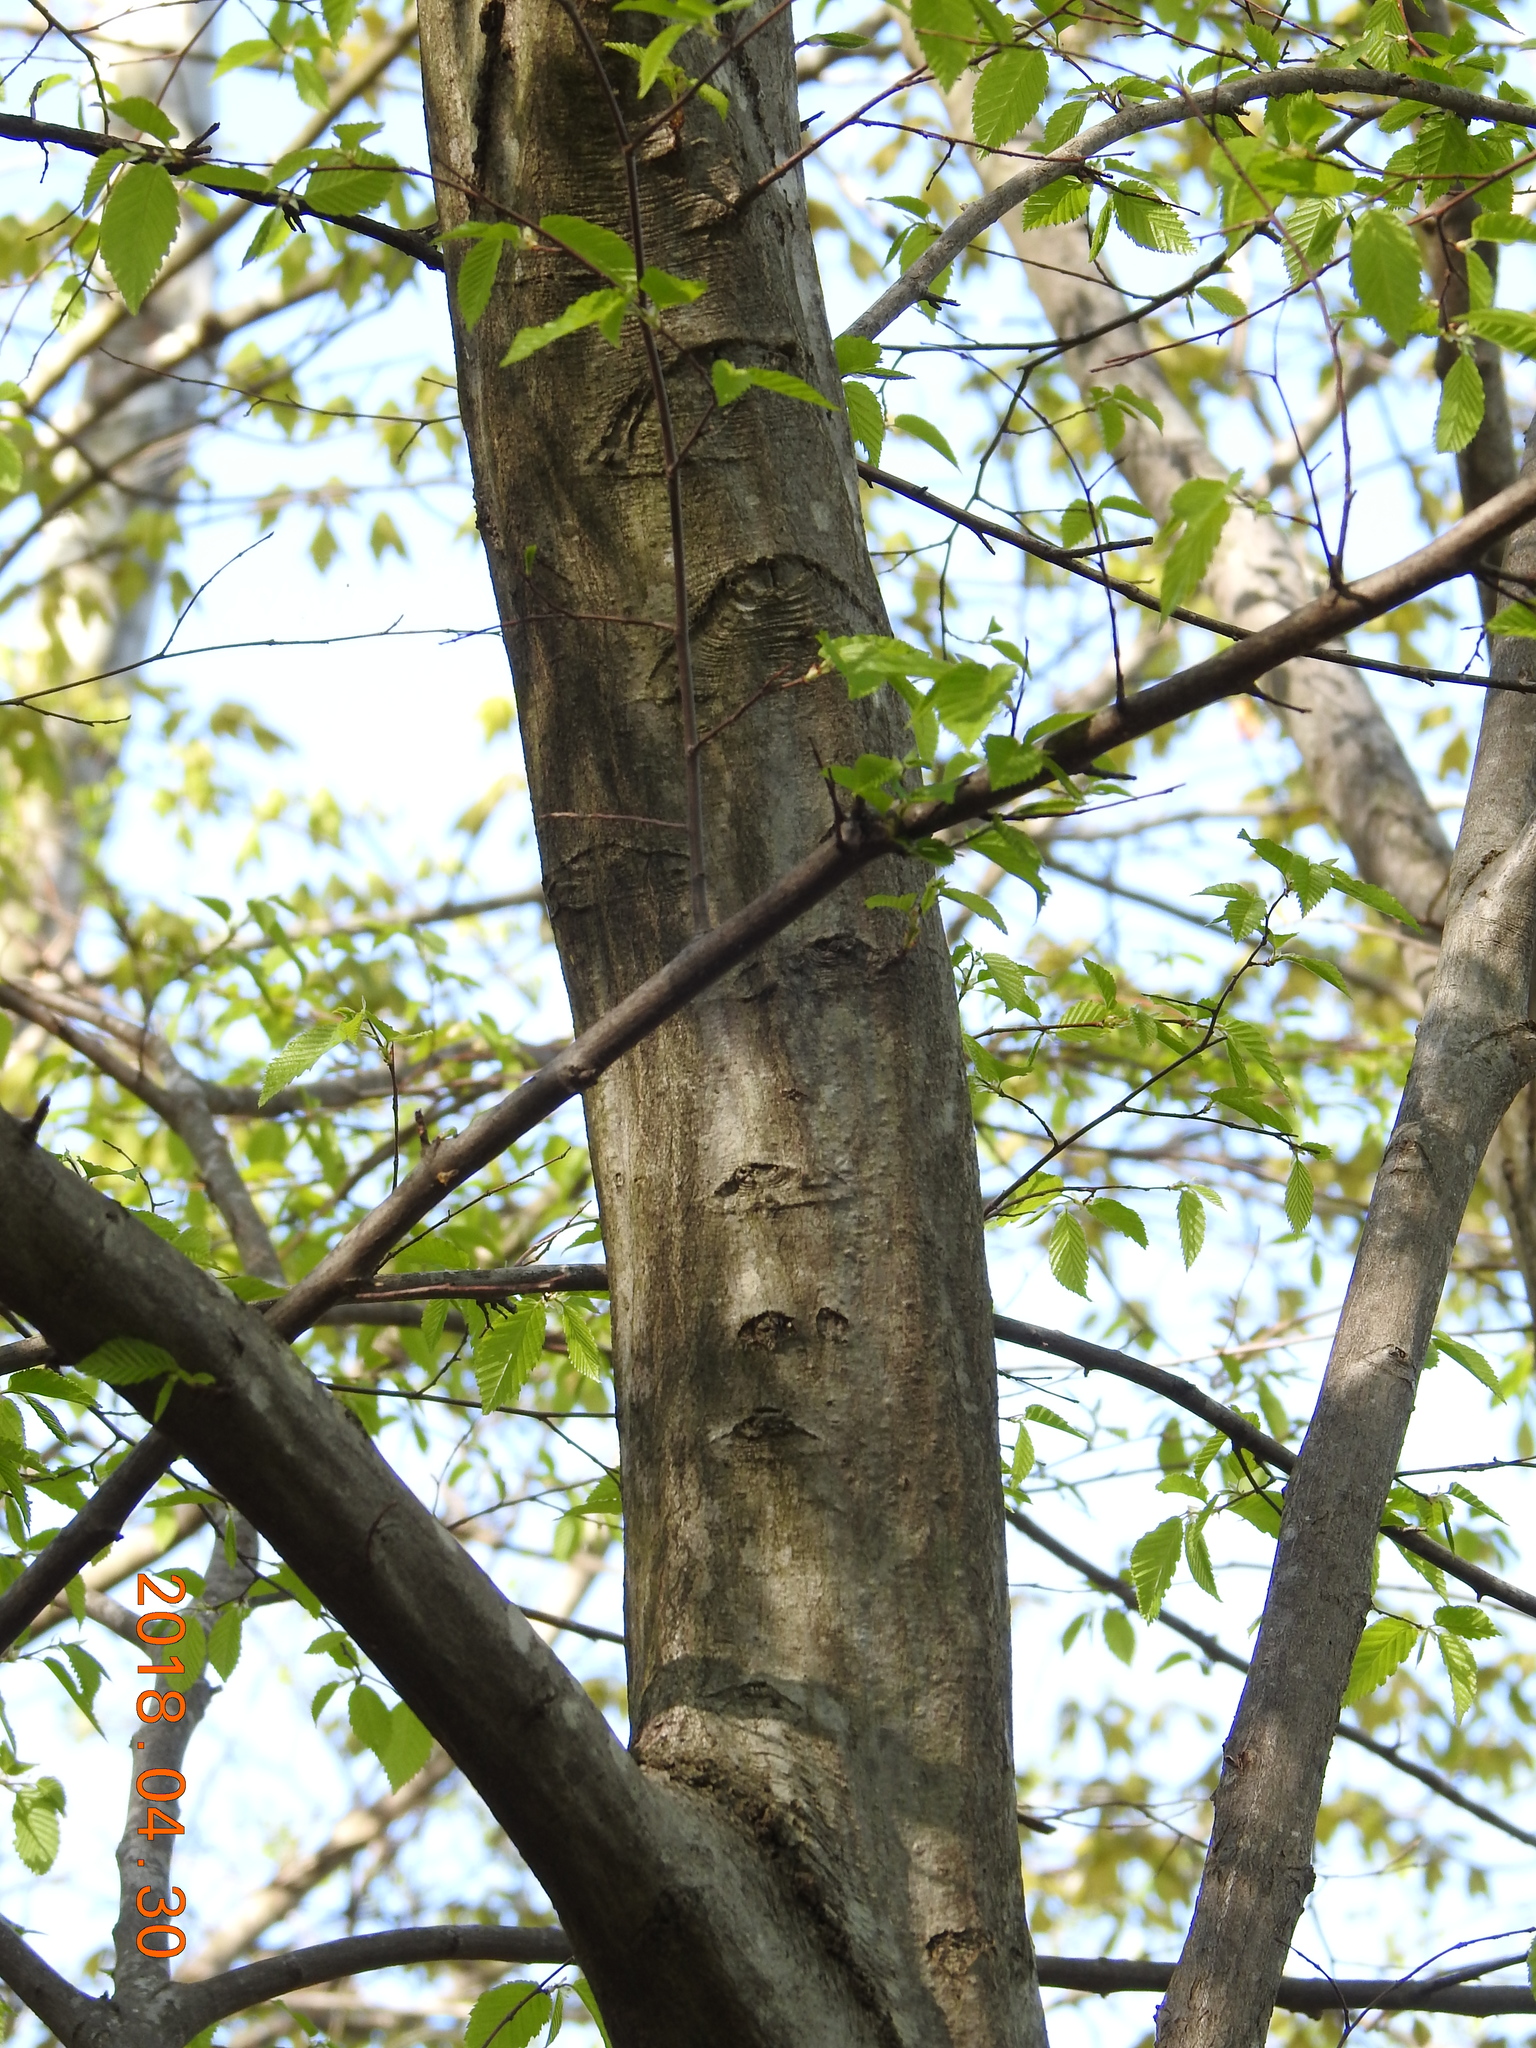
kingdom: Plantae
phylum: Tracheophyta
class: Magnoliopsida
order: Fagales
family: Betulaceae
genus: Carpinus
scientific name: Carpinus caroliniana
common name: American hornbeam
